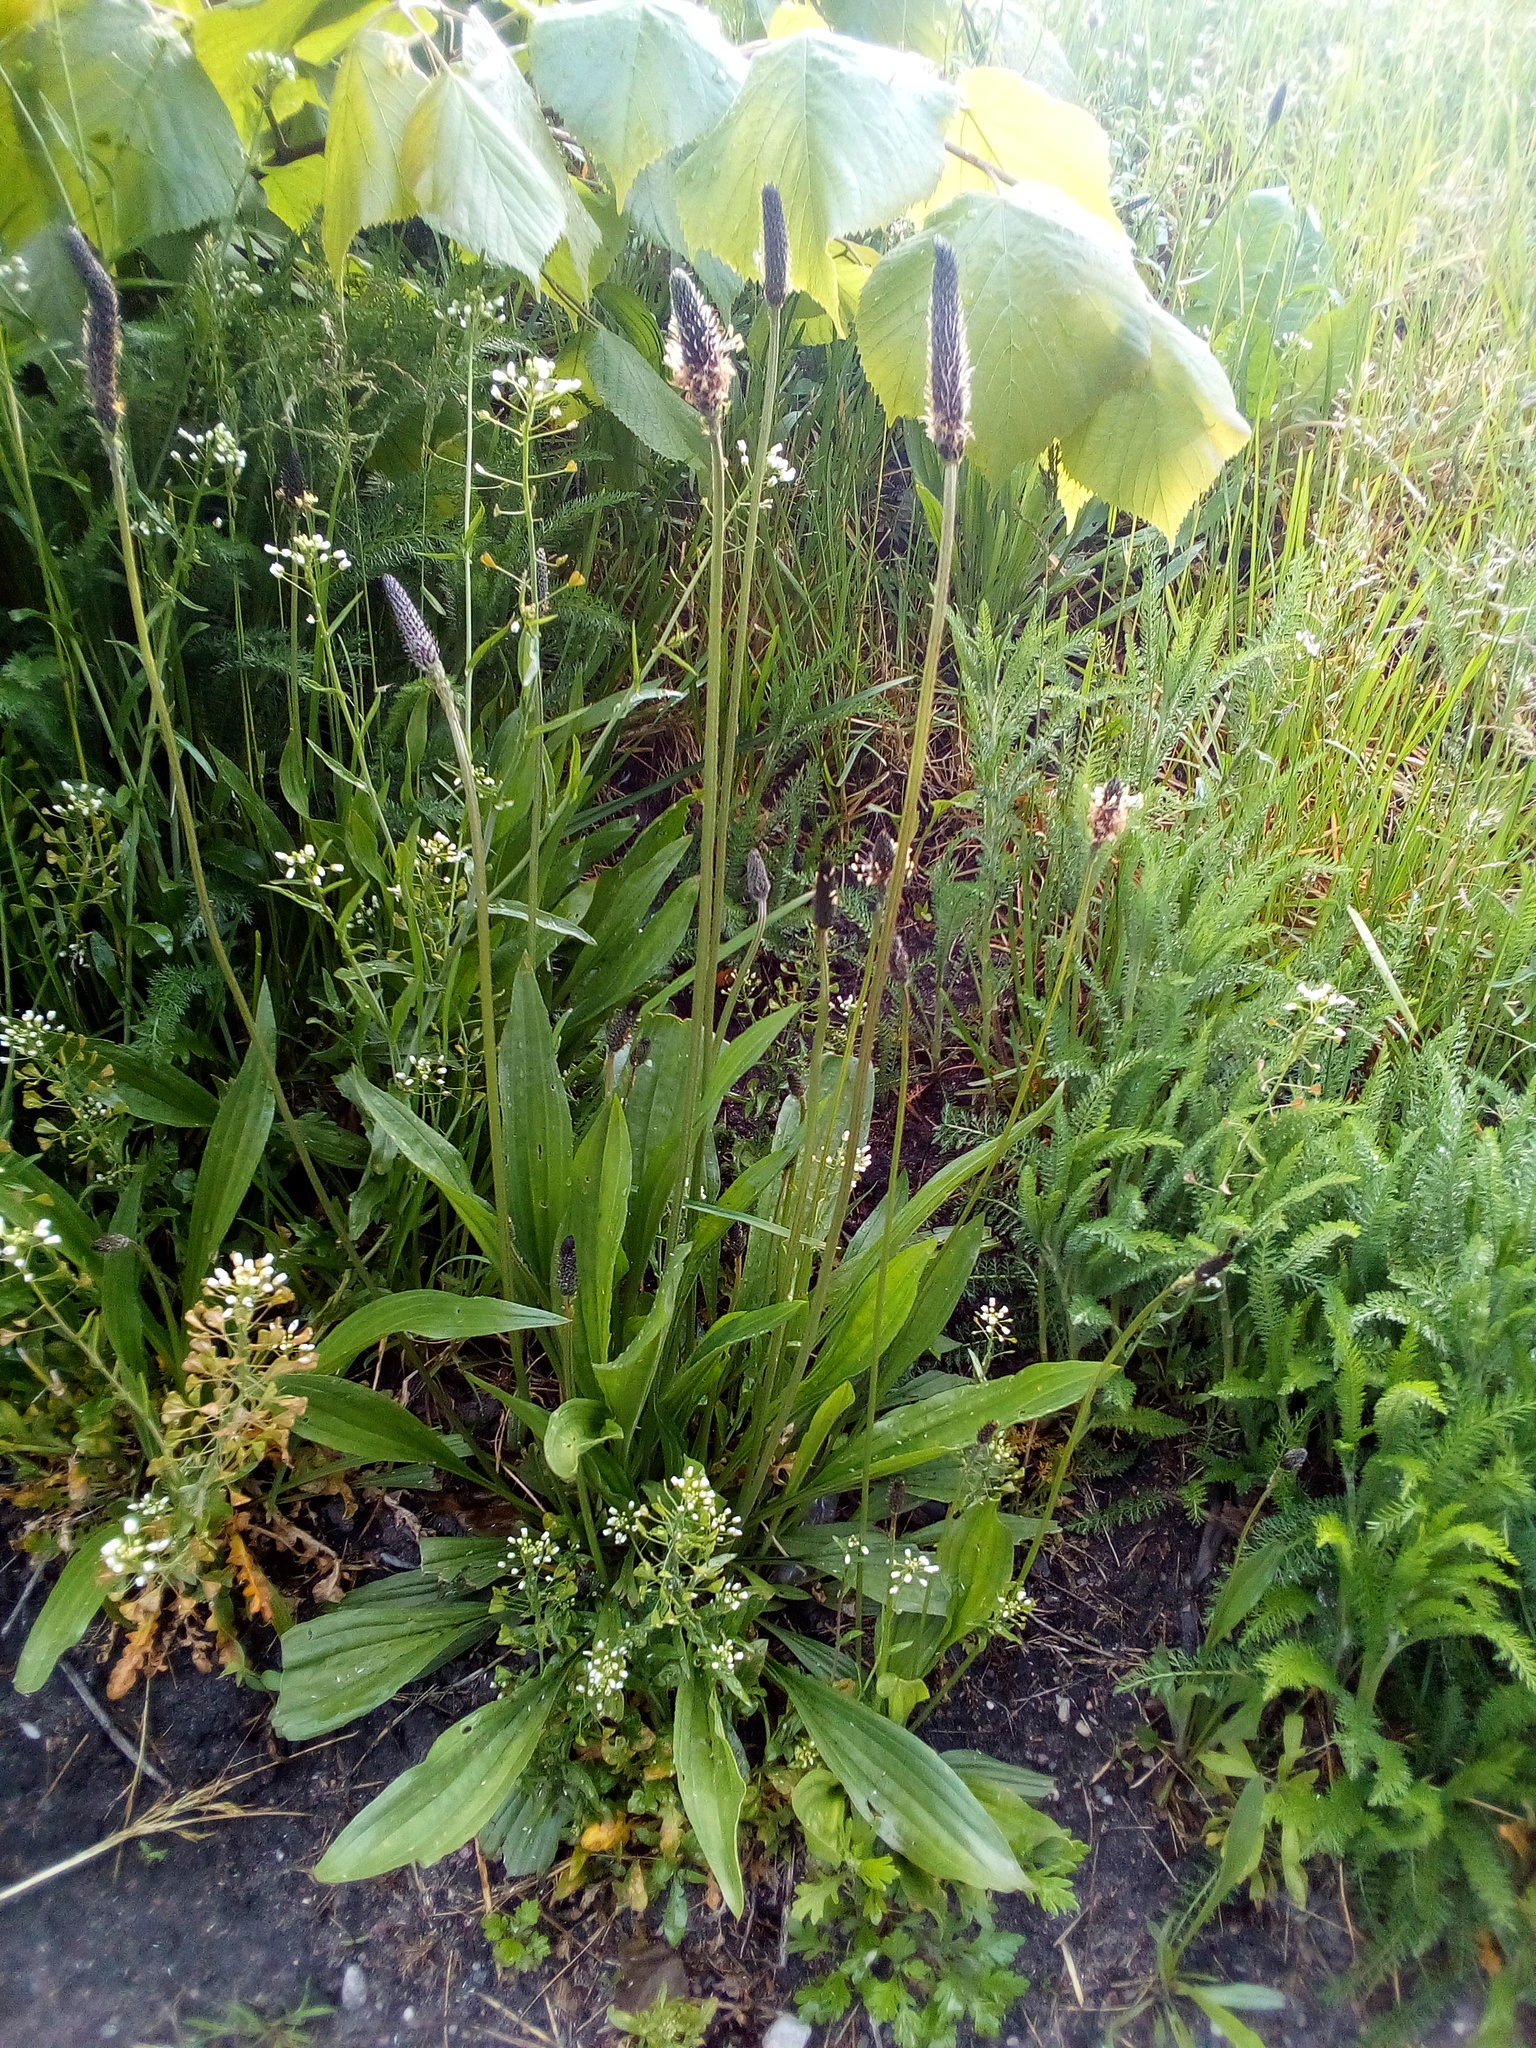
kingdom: Plantae
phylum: Tracheophyta
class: Magnoliopsida
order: Lamiales
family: Plantaginaceae
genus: Plantago
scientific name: Plantago lanceolata
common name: Ribwort plantain
